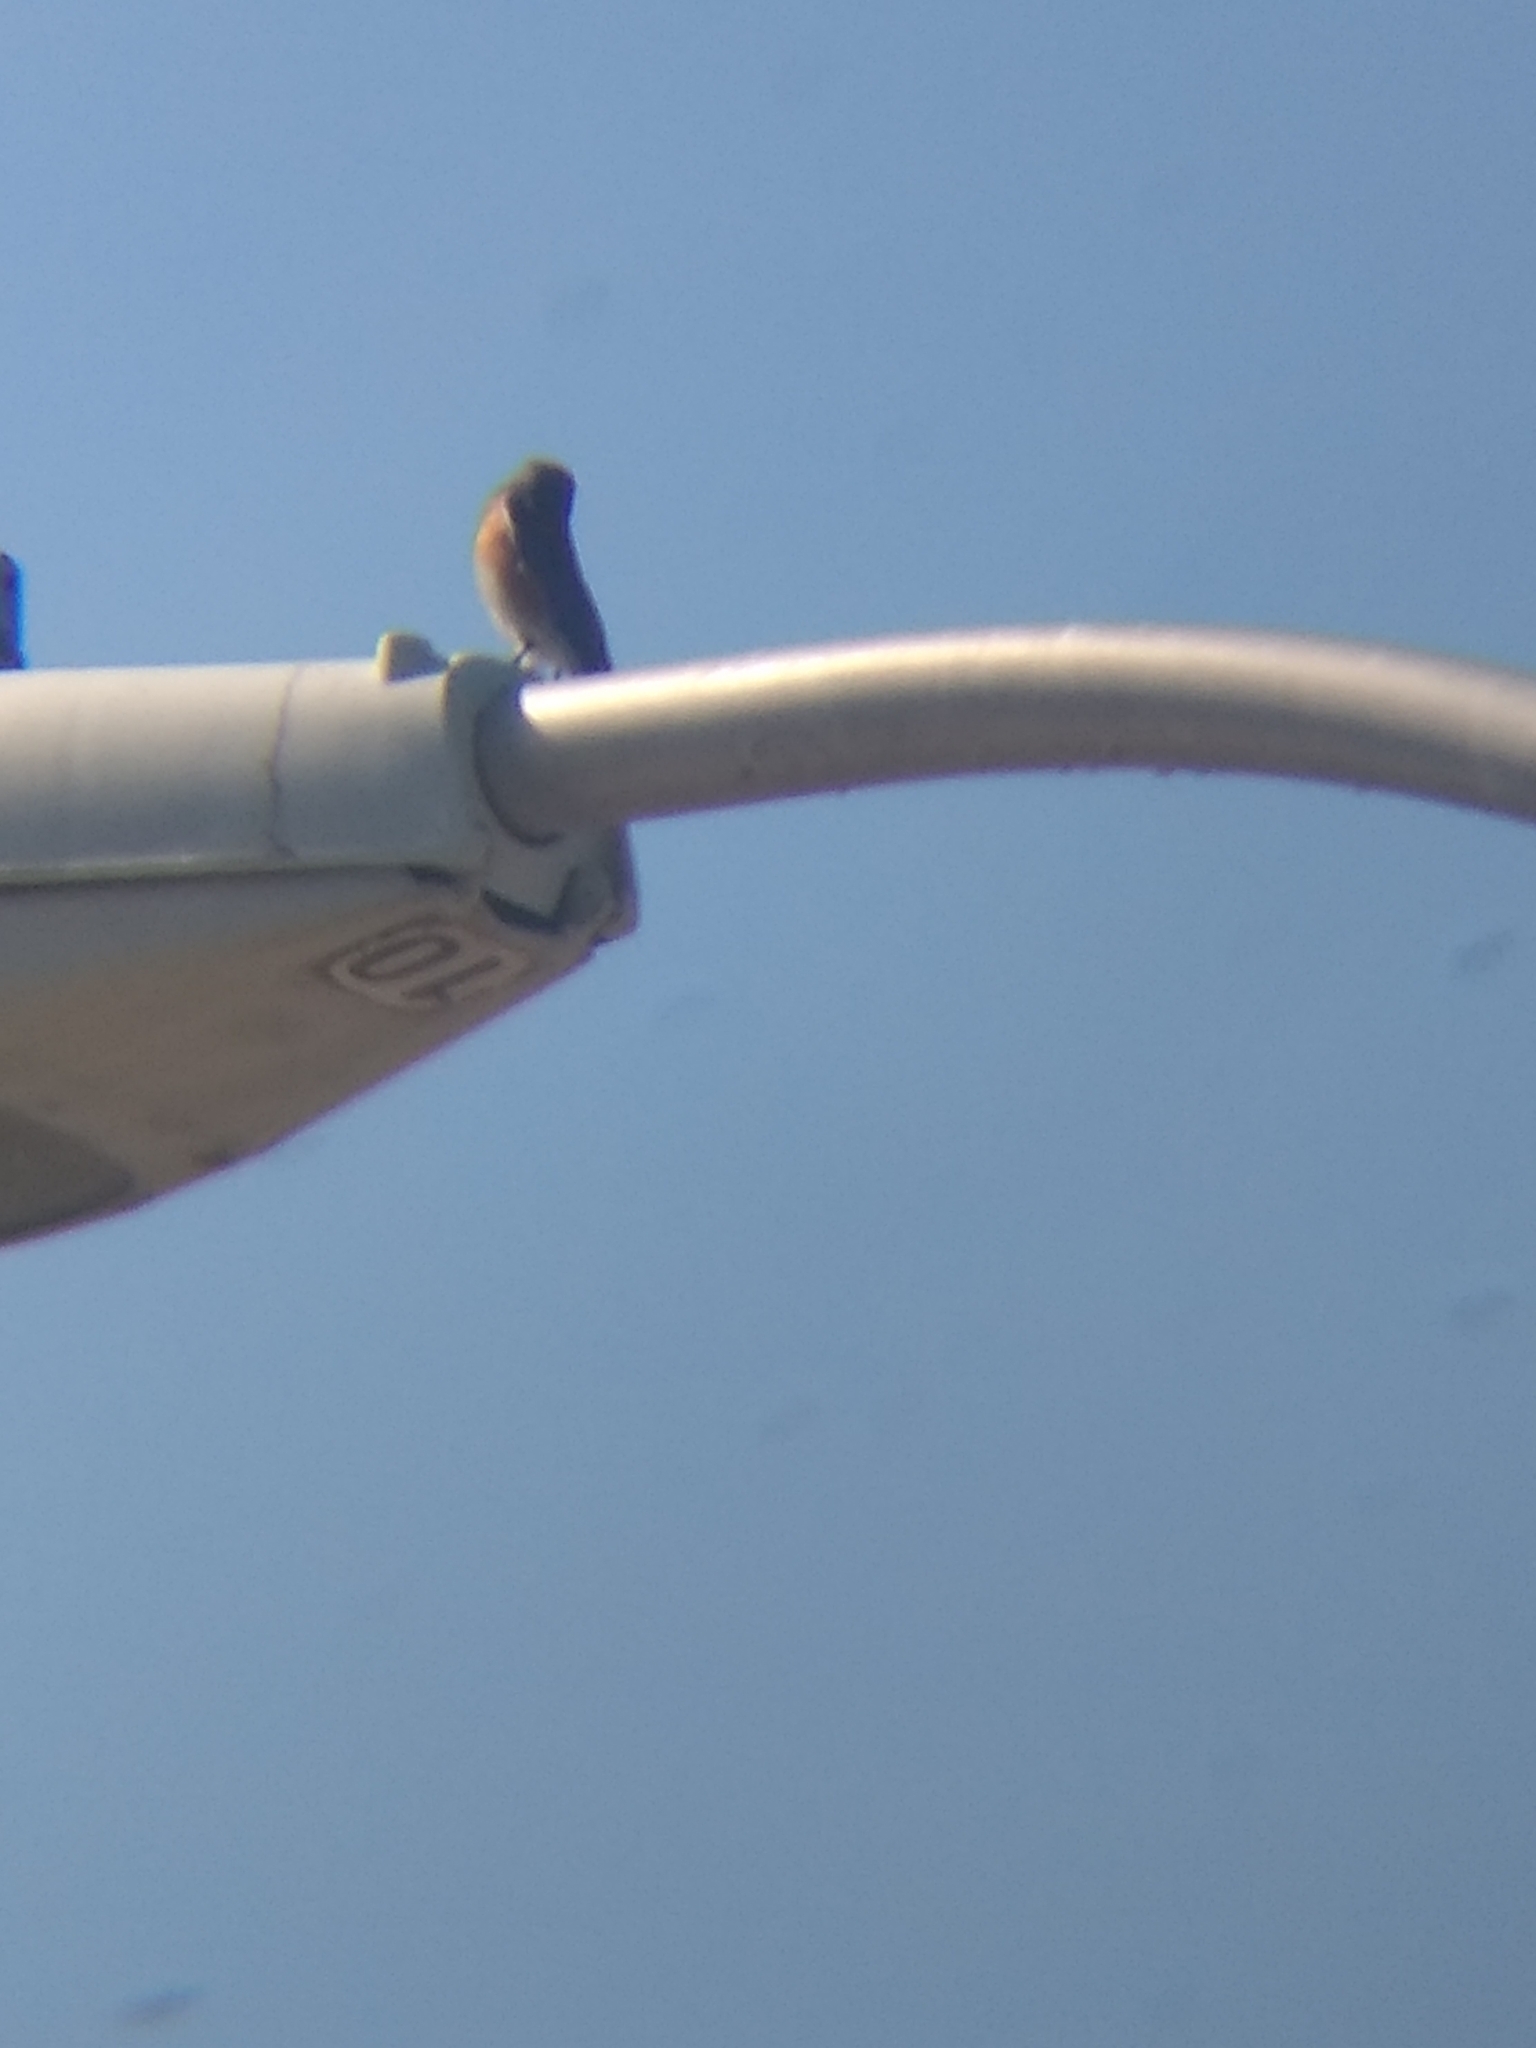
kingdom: Animalia
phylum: Chordata
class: Aves
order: Passeriformes
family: Turdidae
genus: Sialia
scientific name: Sialia mexicana
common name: Western bluebird
